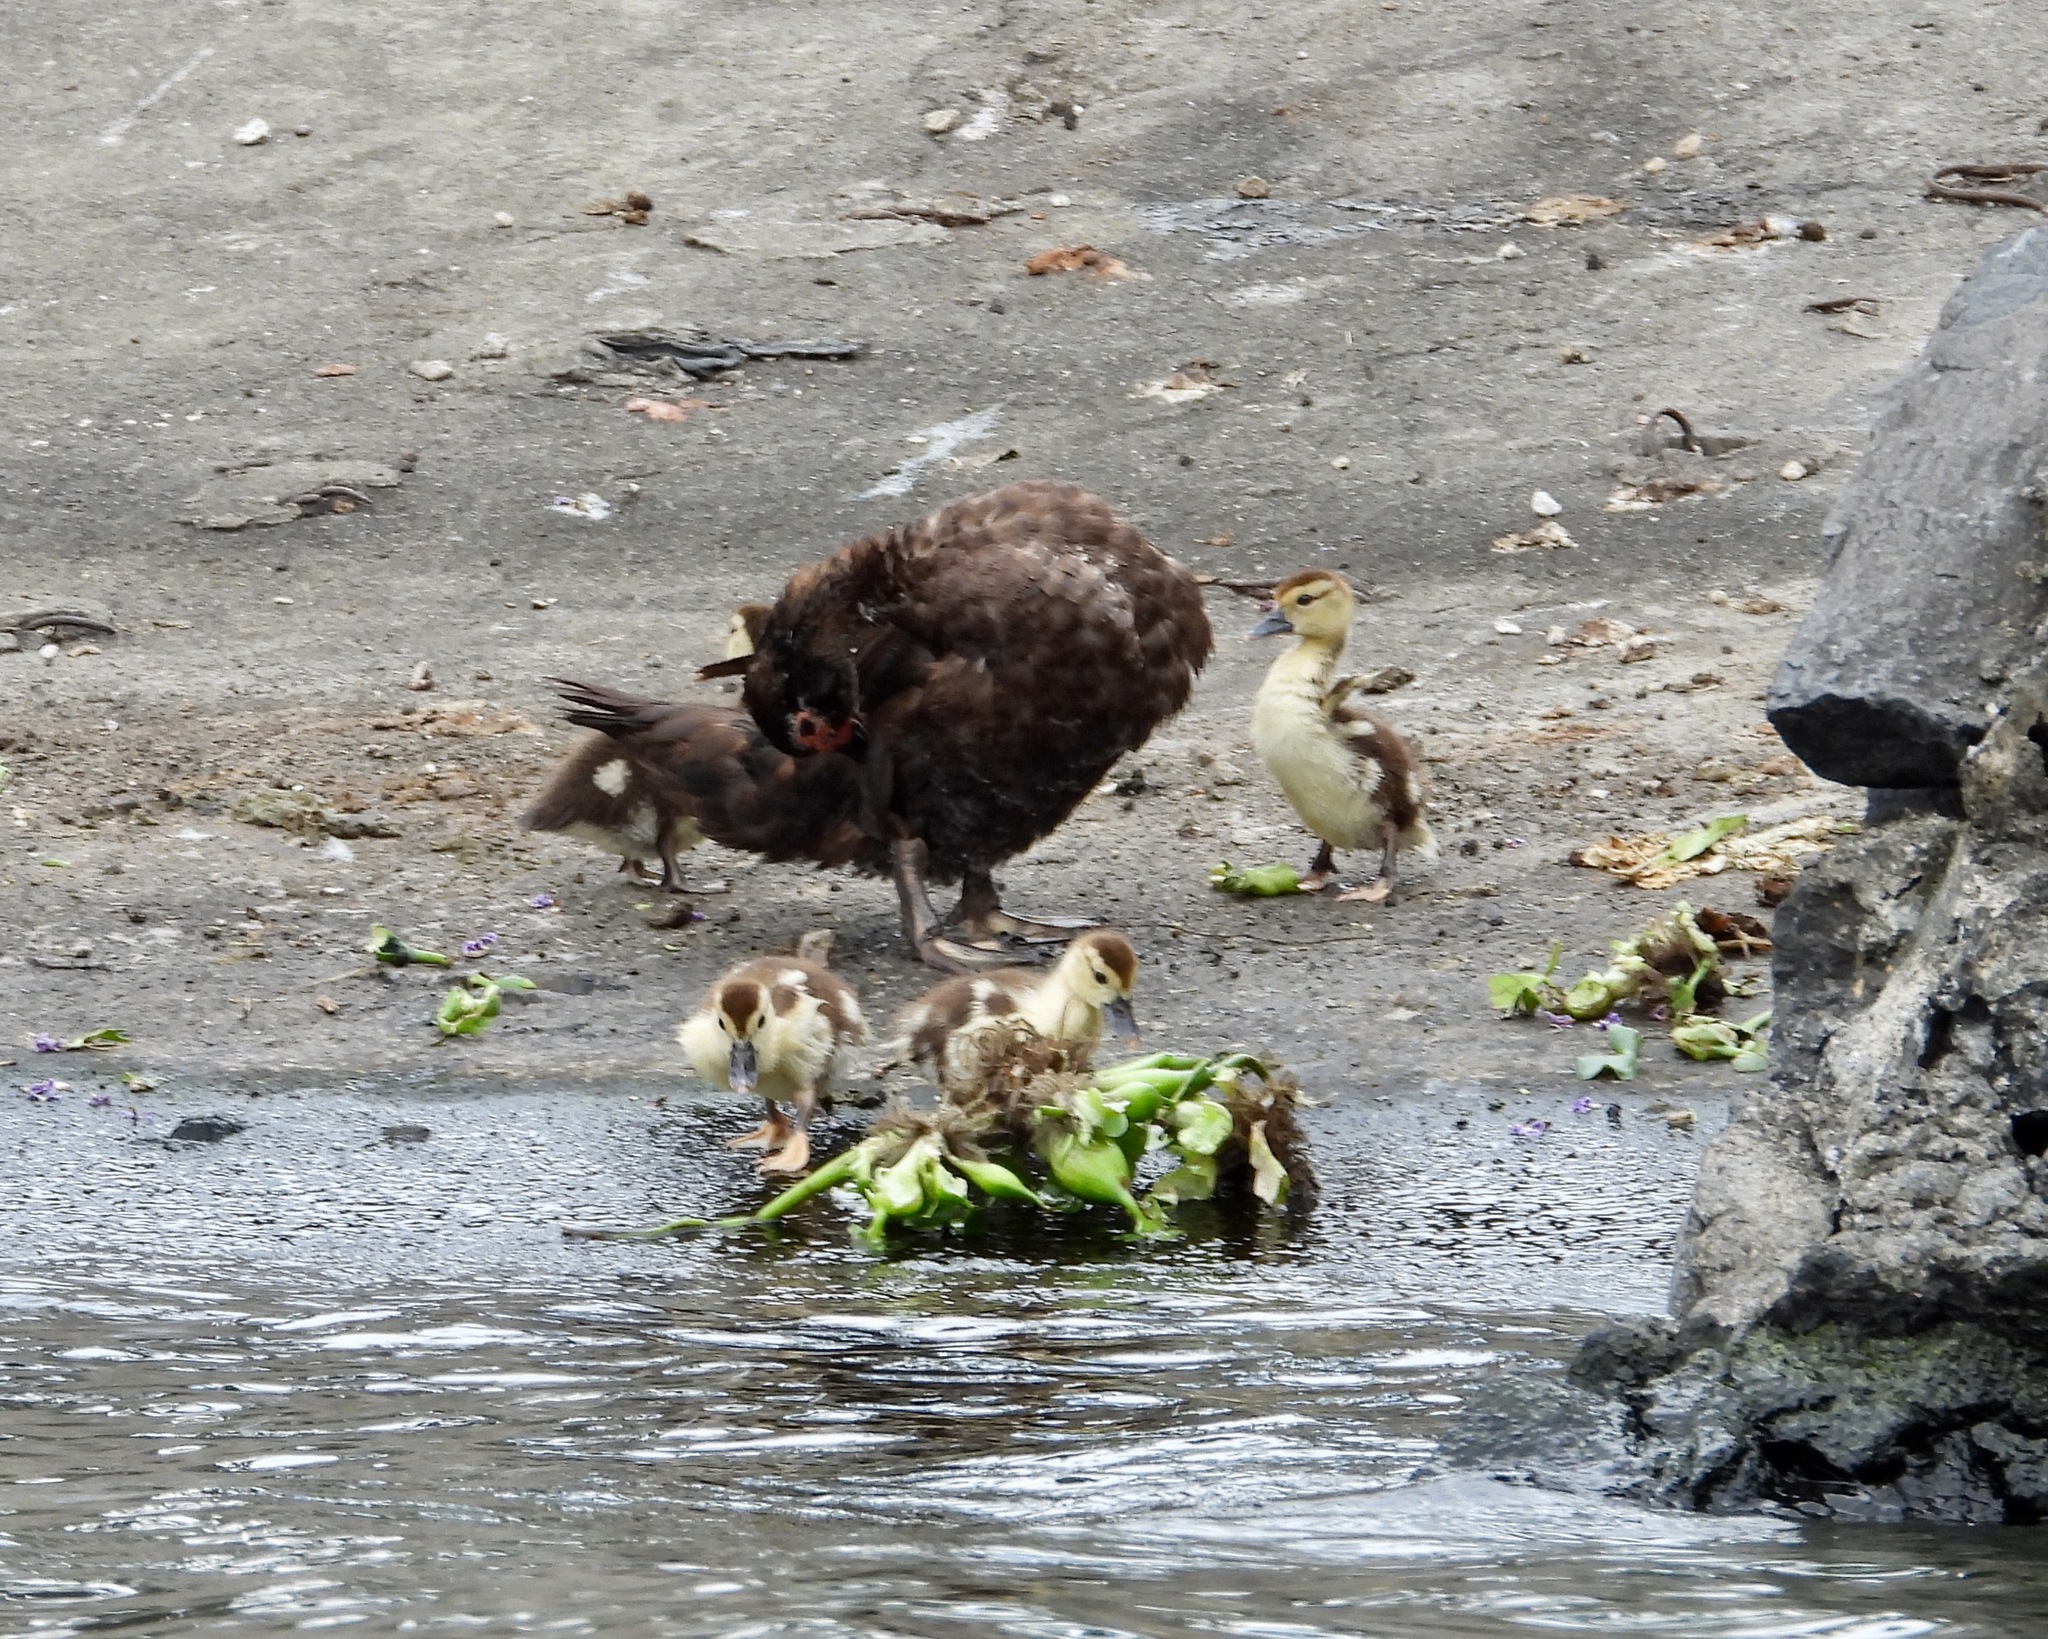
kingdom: Animalia
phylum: Chordata
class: Aves
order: Anseriformes
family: Anatidae
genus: Cairina
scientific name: Cairina moschata
